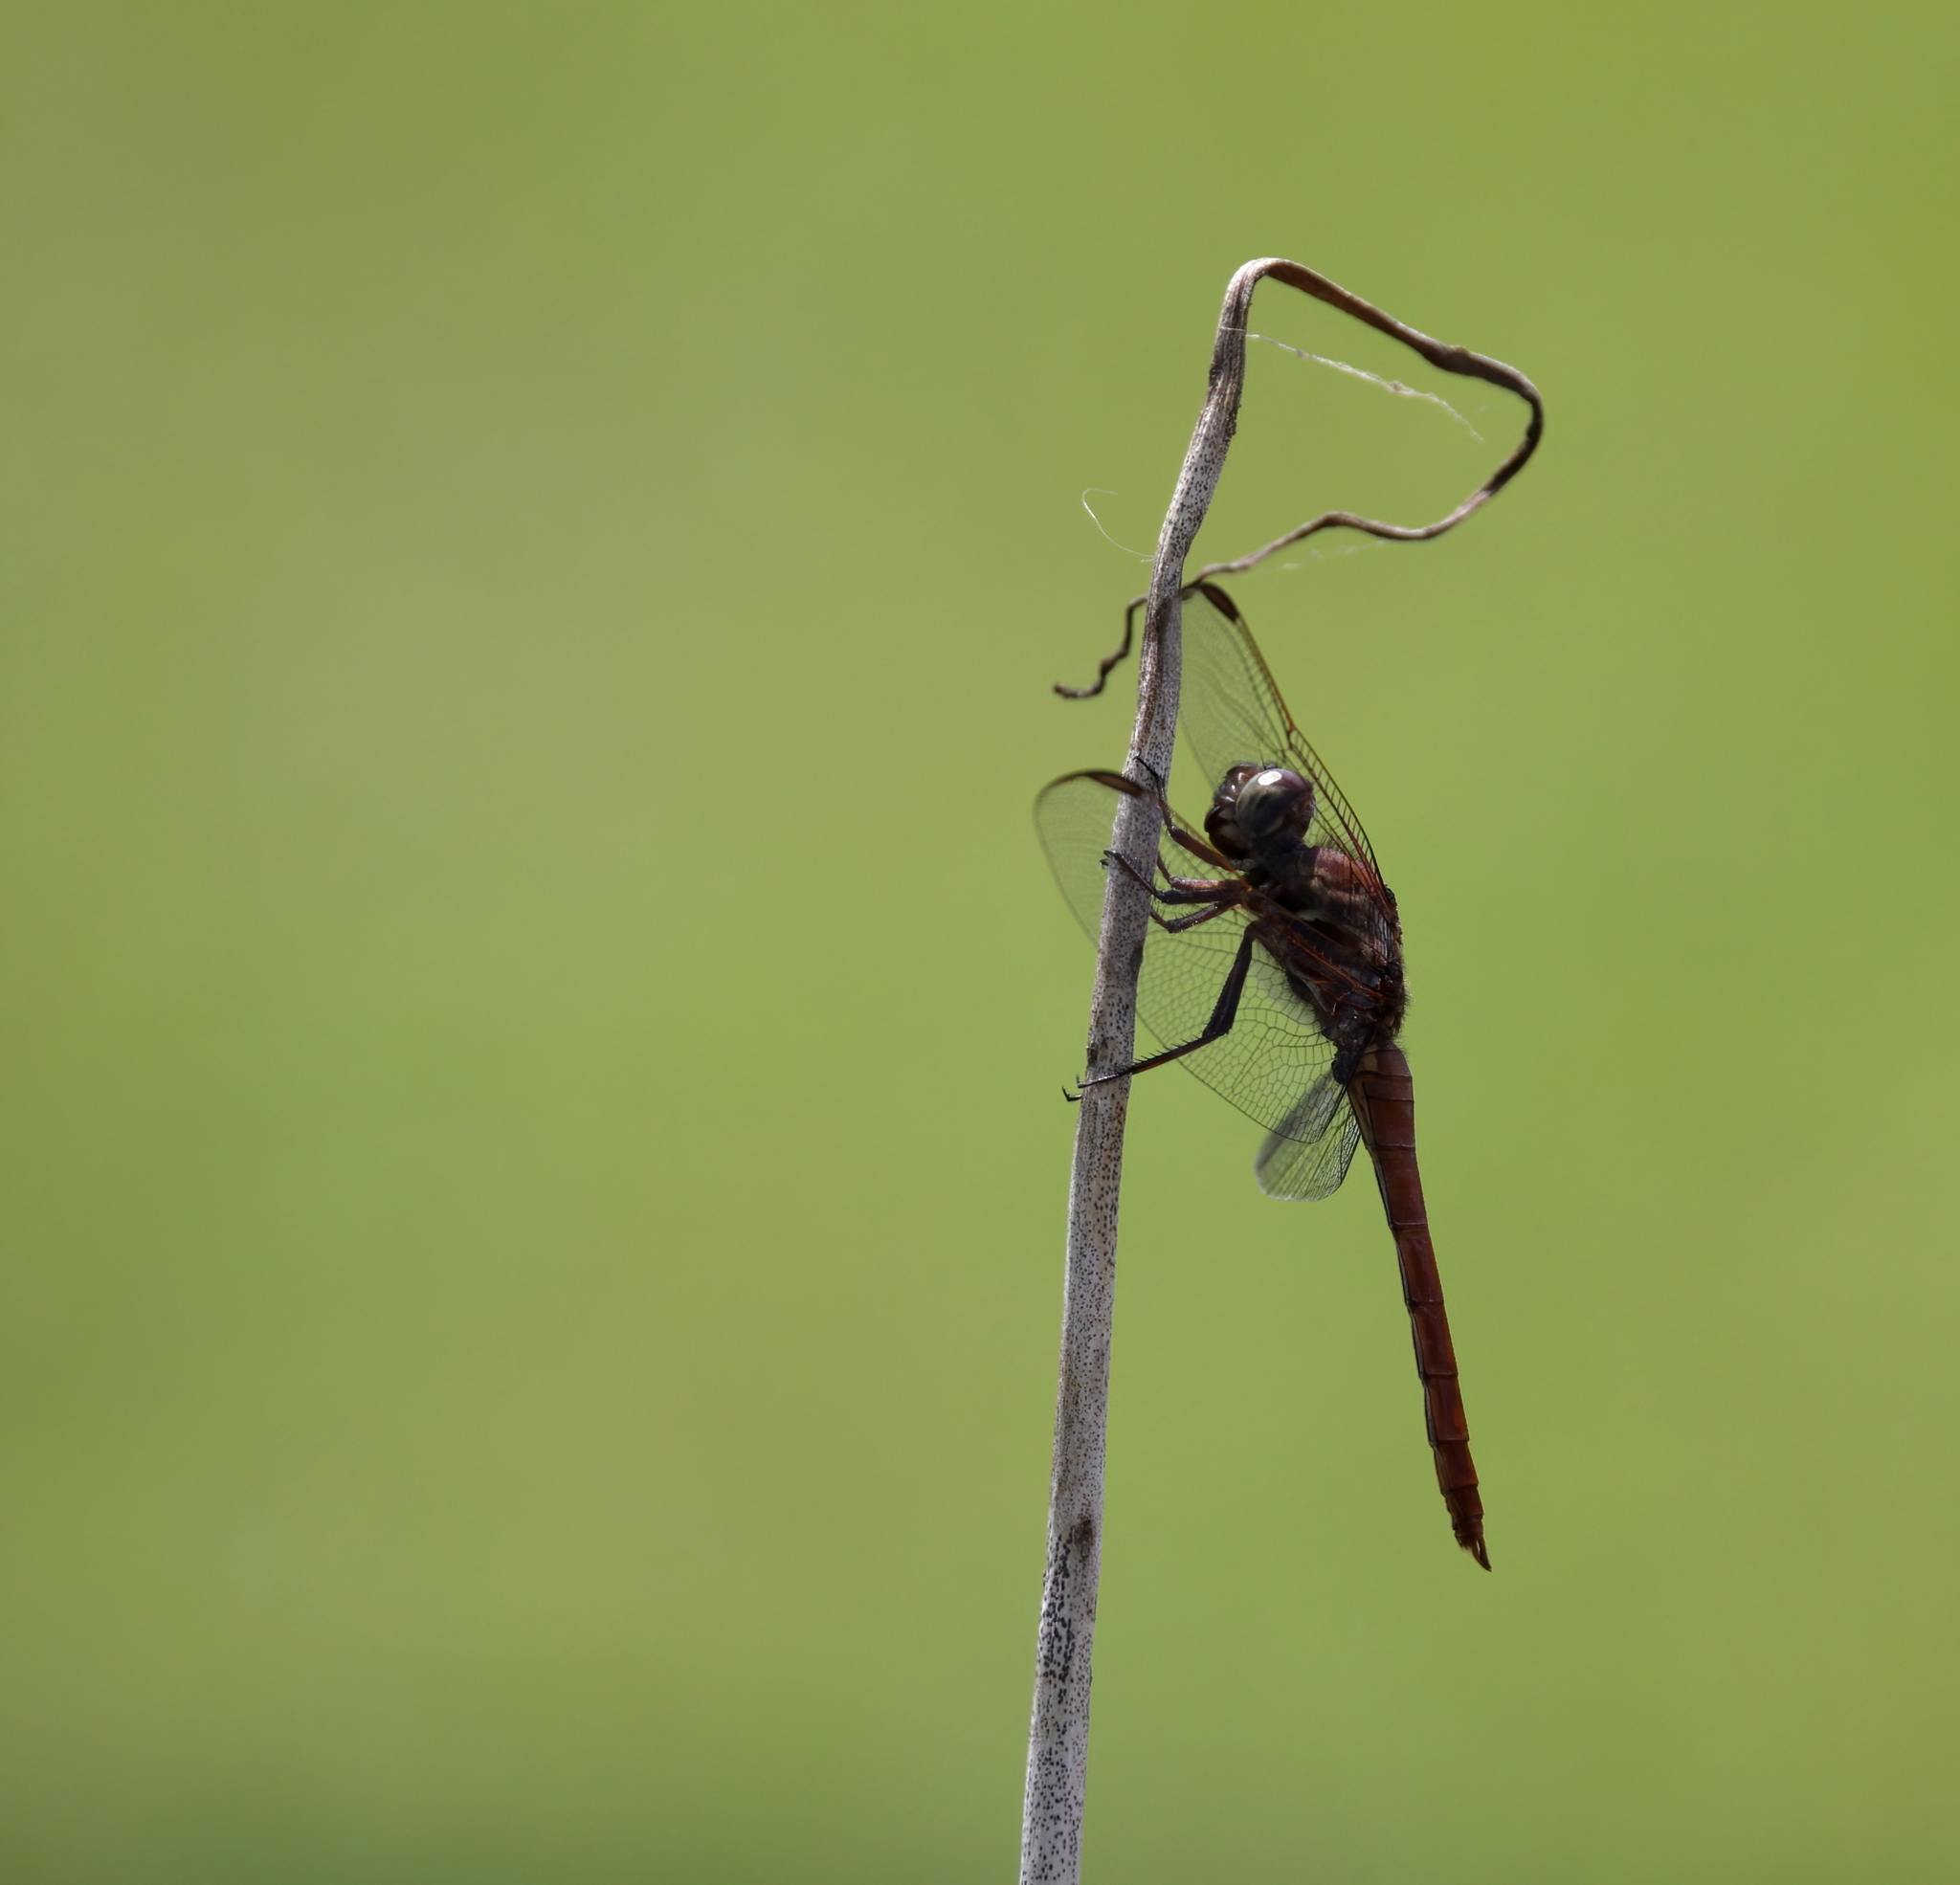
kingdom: Animalia
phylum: Arthropoda
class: Insecta
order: Odonata
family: Libellulidae
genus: Orthemis
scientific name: Orthemis ferruginea
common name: Roseate skimmer
